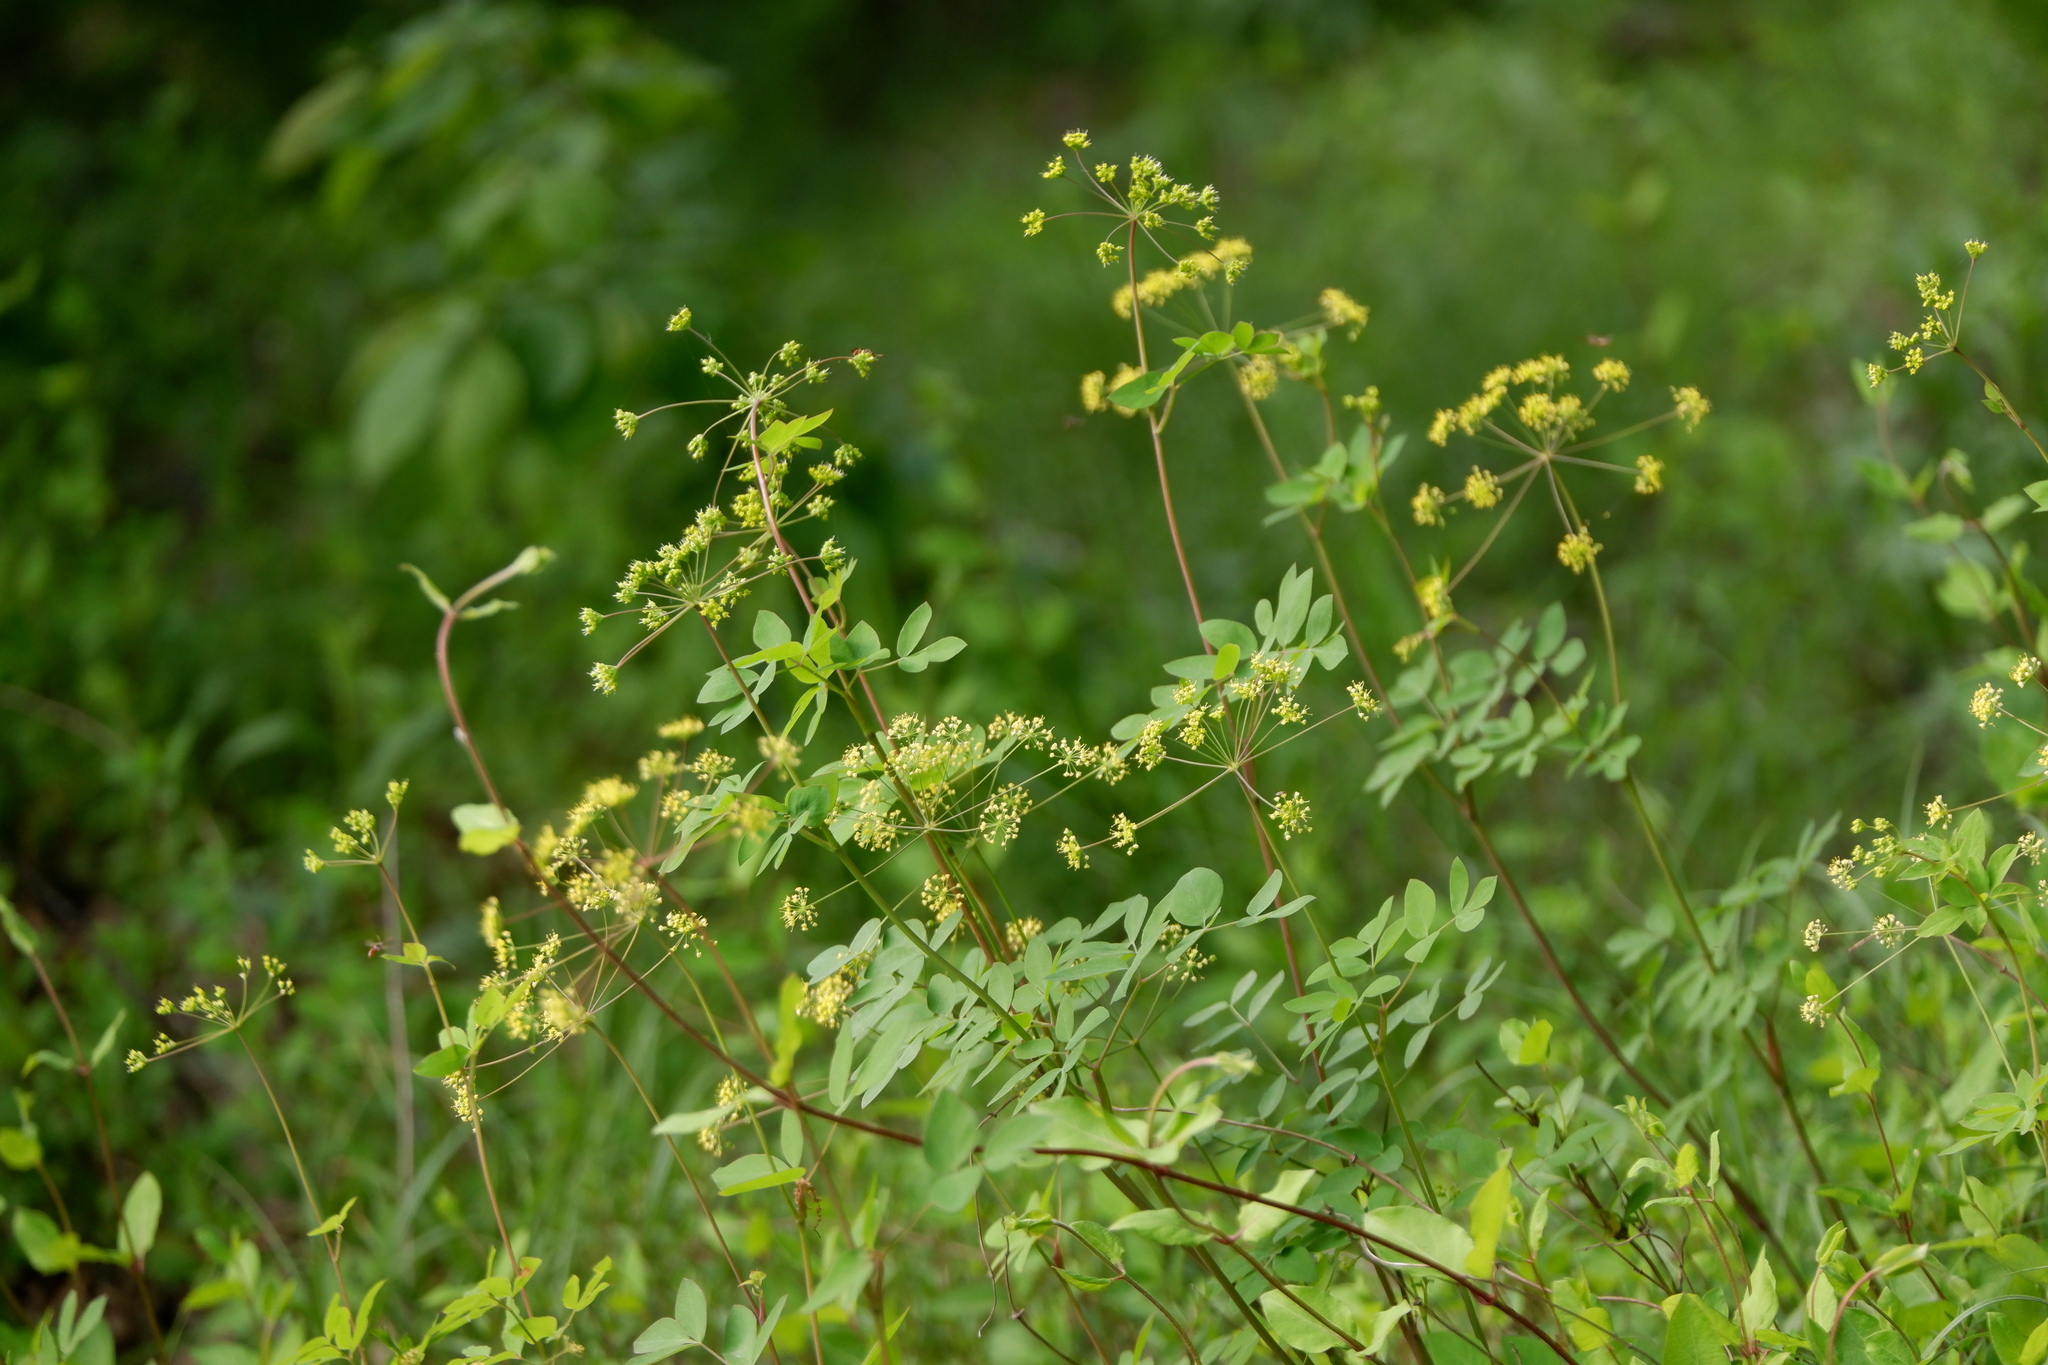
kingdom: Plantae
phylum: Tracheophyta
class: Magnoliopsida
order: Apiales
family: Apiaceae
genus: Taenidia
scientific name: Taenidia integerrima
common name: Golden alexander
